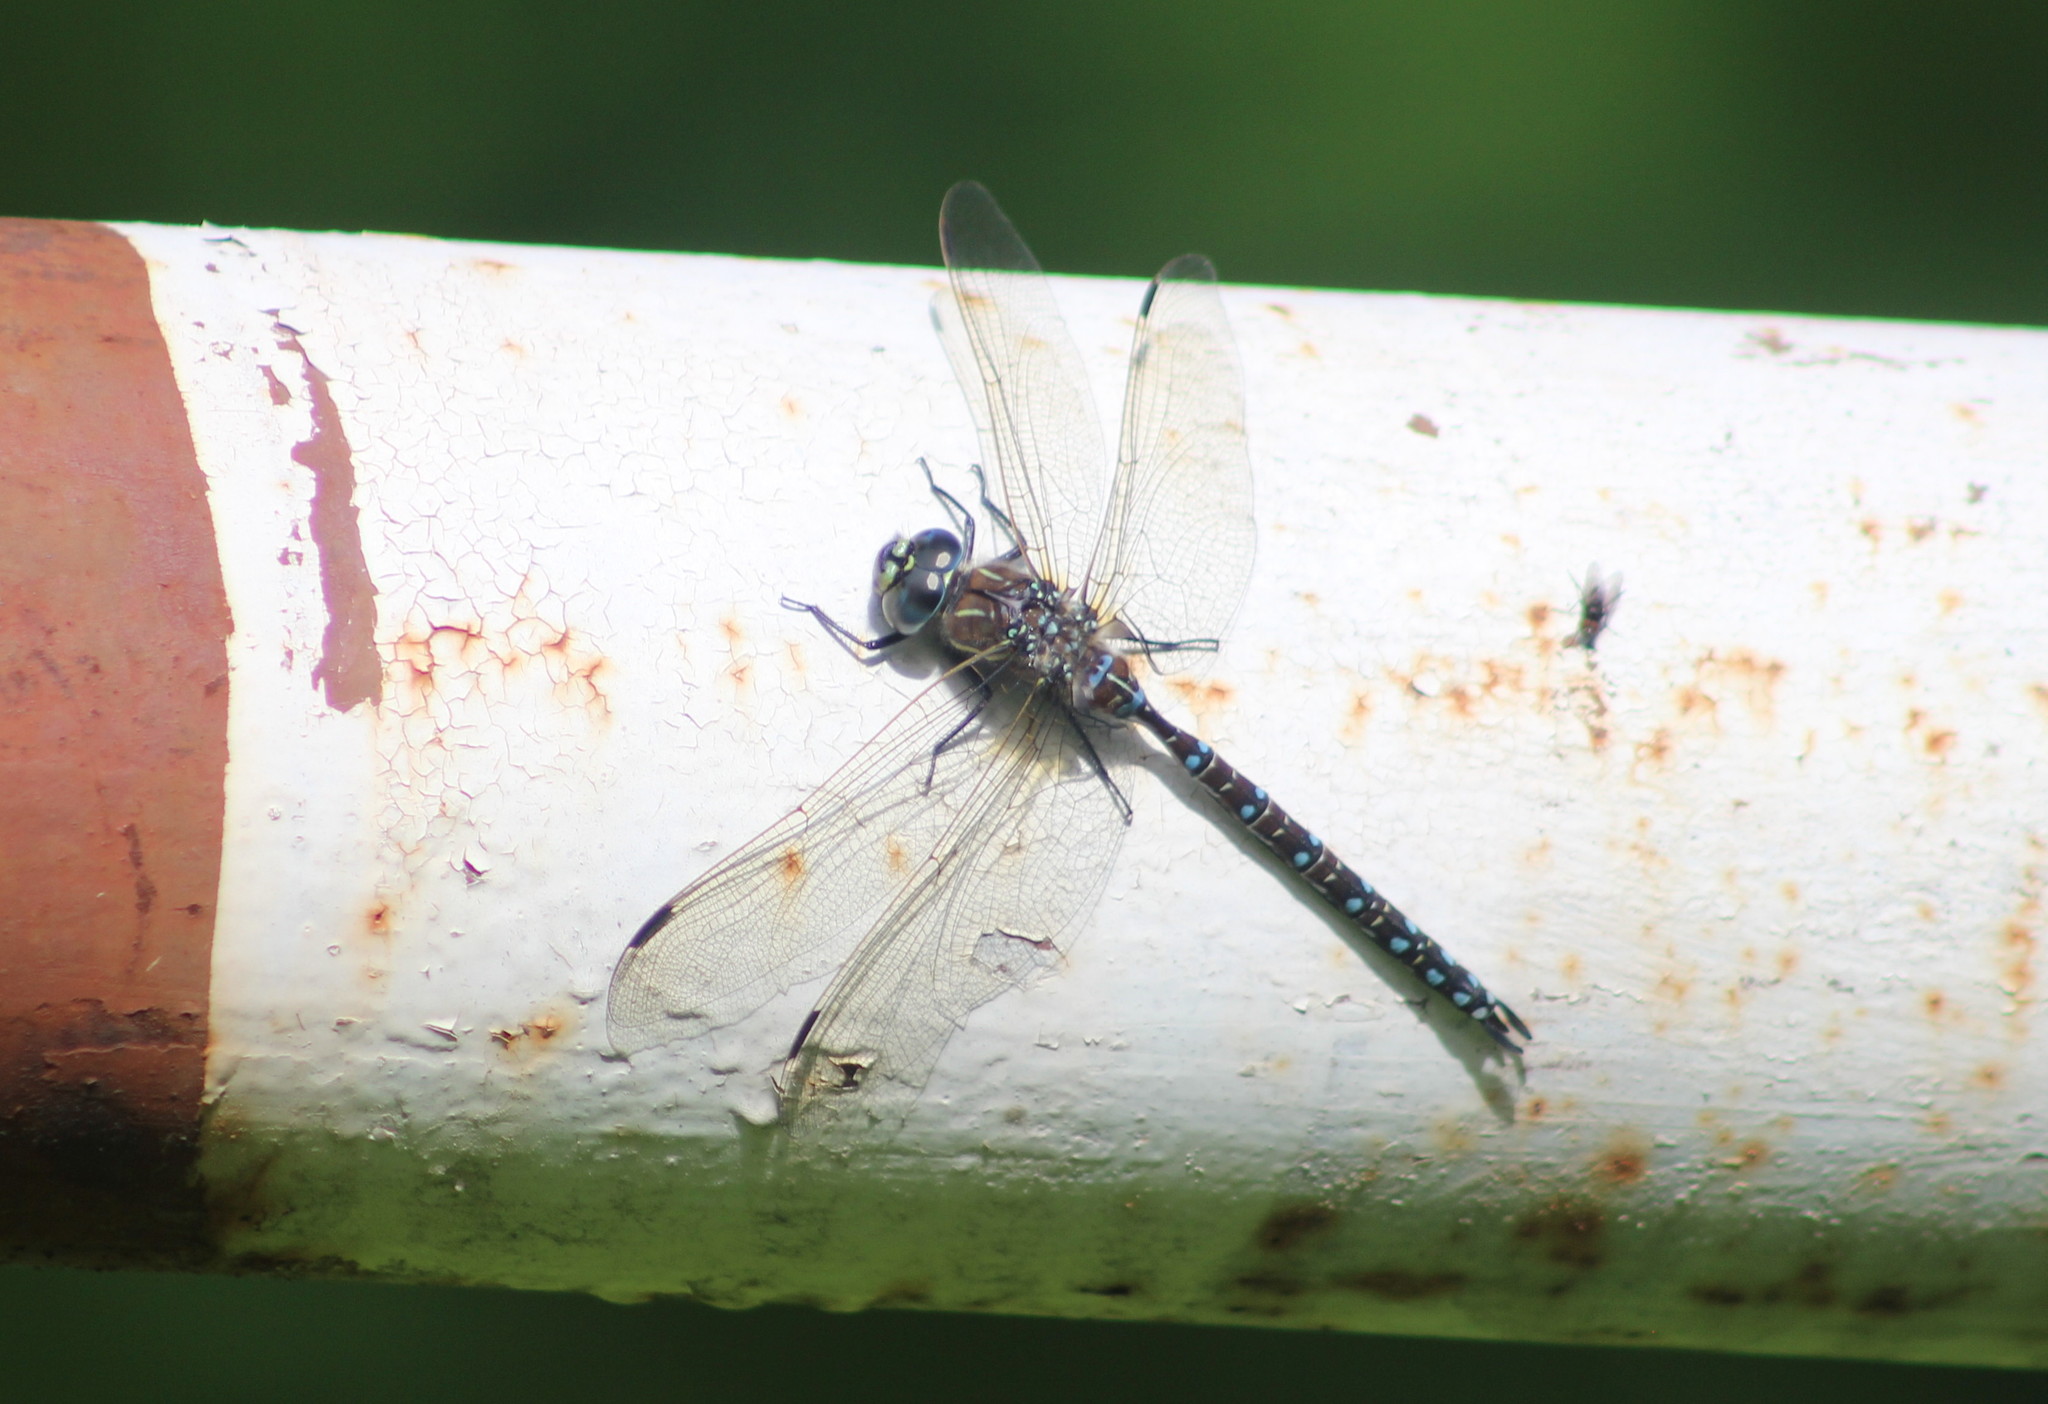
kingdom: Animalia
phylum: Arthropoda
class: Insecta
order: Odonata
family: Aeshnidae
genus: Aeshna
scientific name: Aeshna juncea
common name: Moorland hawker
